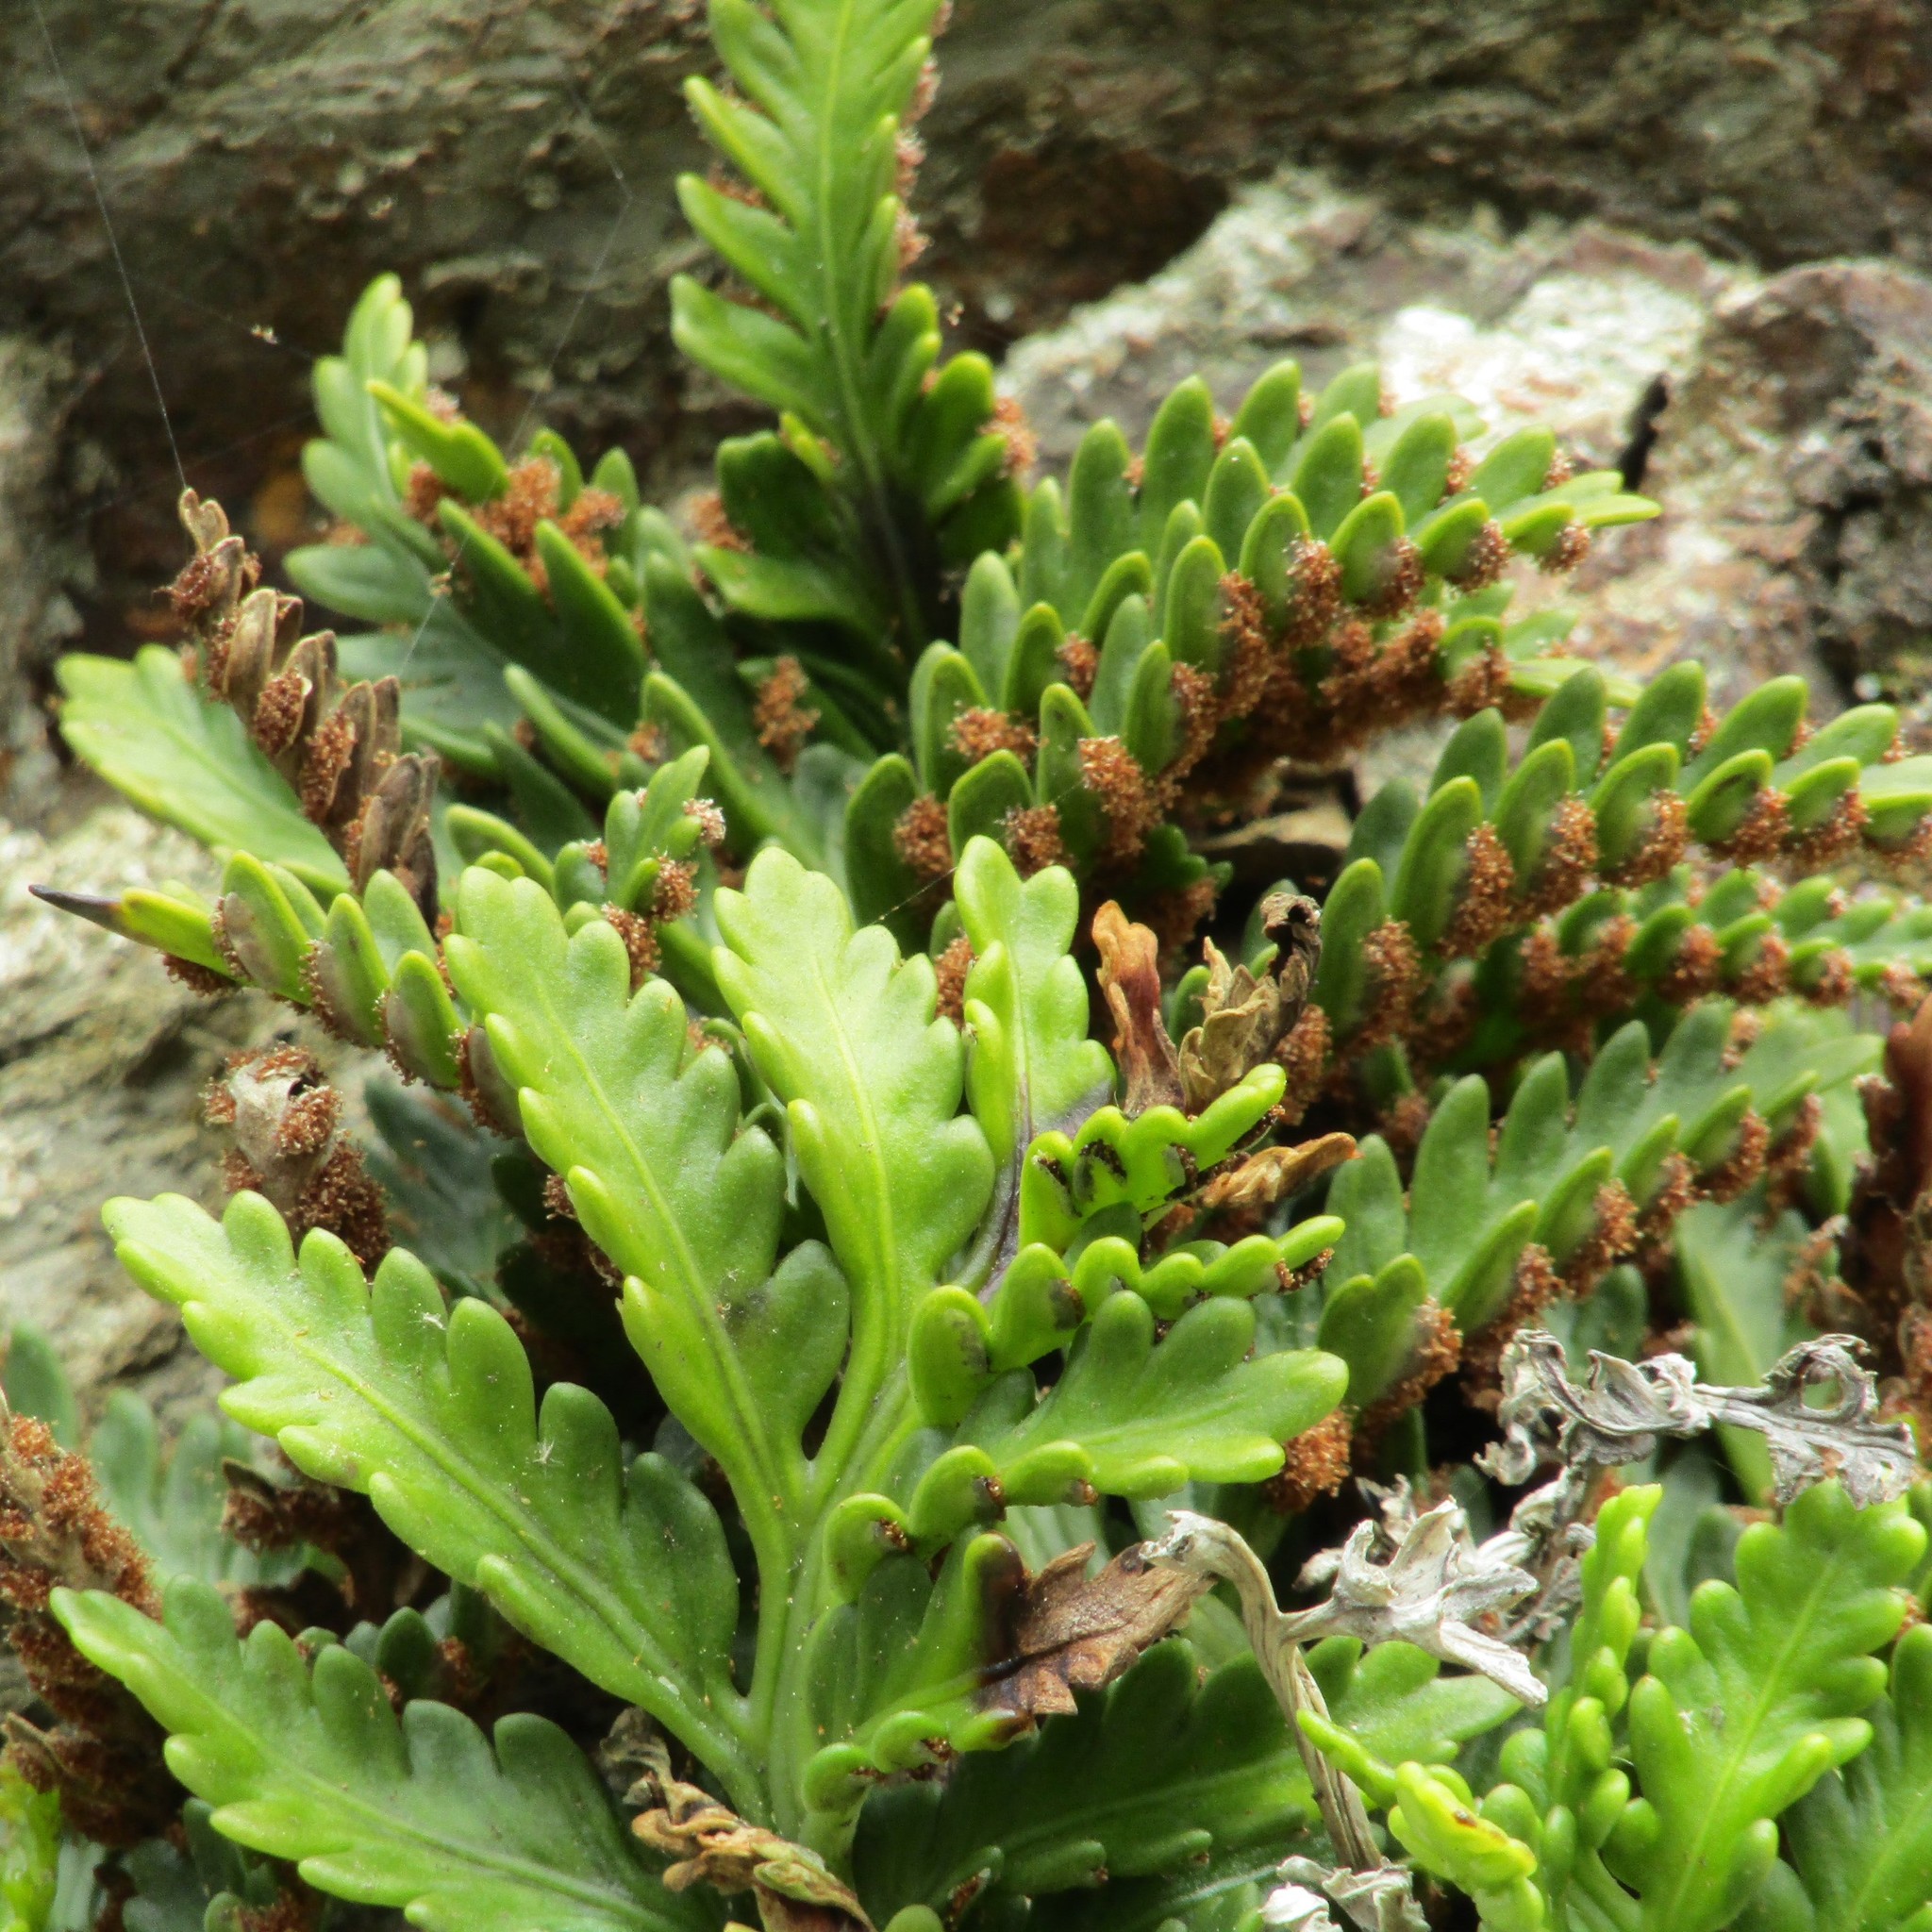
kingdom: Plantae
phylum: Tracheophyta
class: Polypodiopsida
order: Polypodiales
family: Aspleniaceae
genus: Asplenium
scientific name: Asplenium appendiculatum
